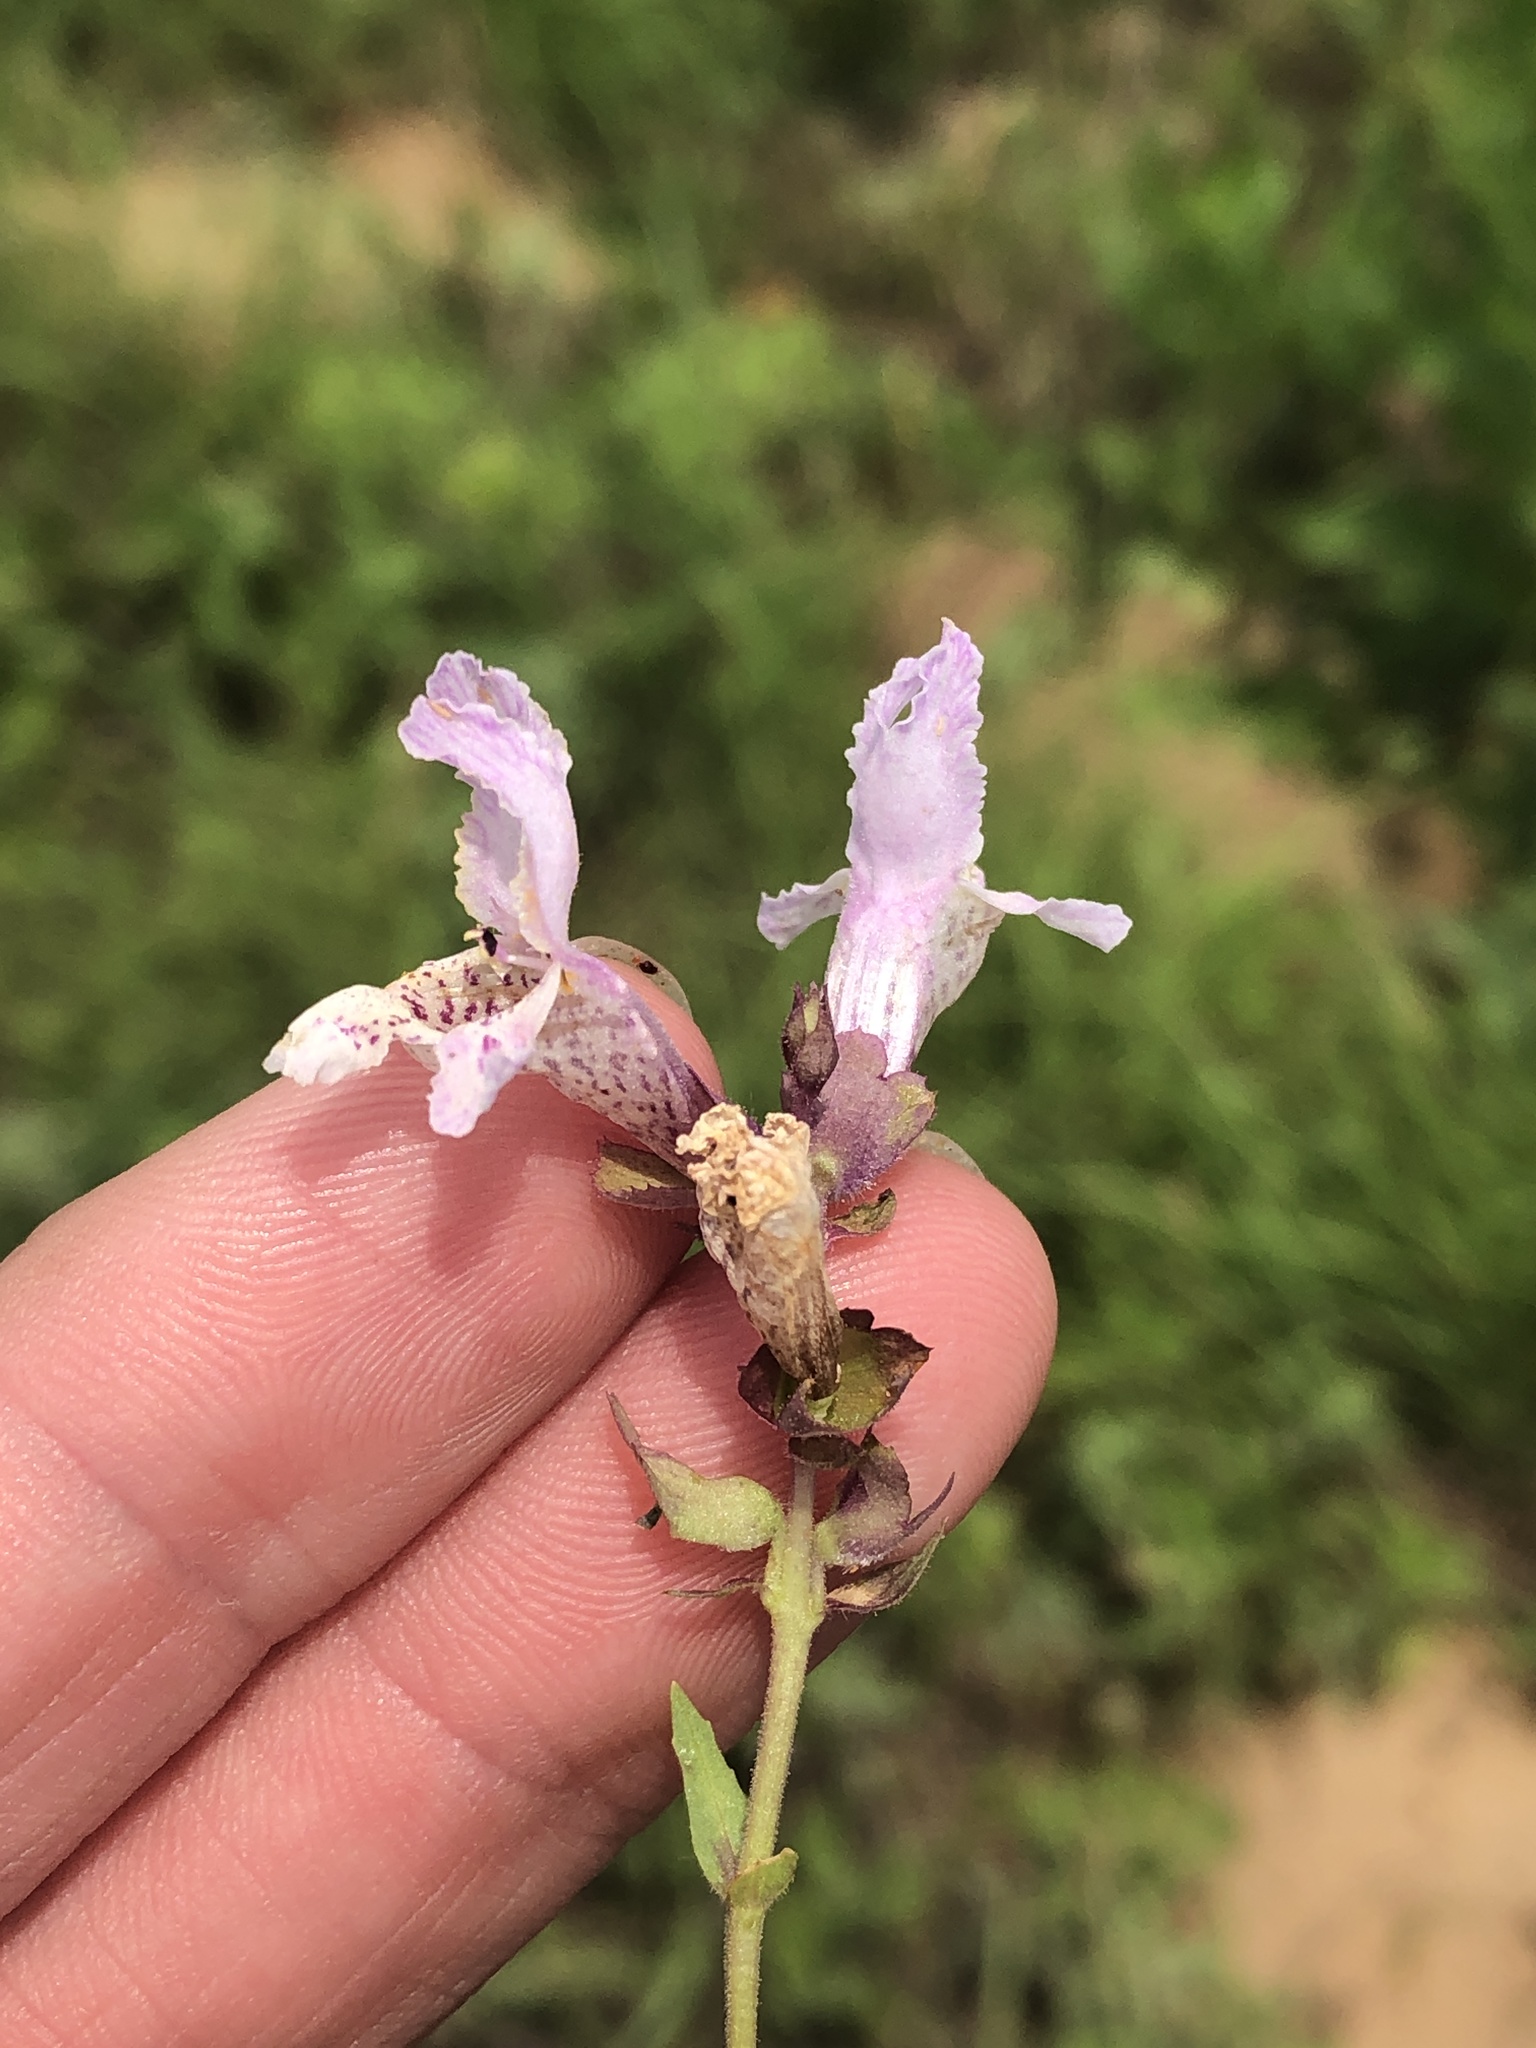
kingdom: Plantae
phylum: Tracheophyta
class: Magnoliopsida
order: Lamiales
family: Lamiaceae
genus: Brazoria
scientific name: Brazoria truncata
